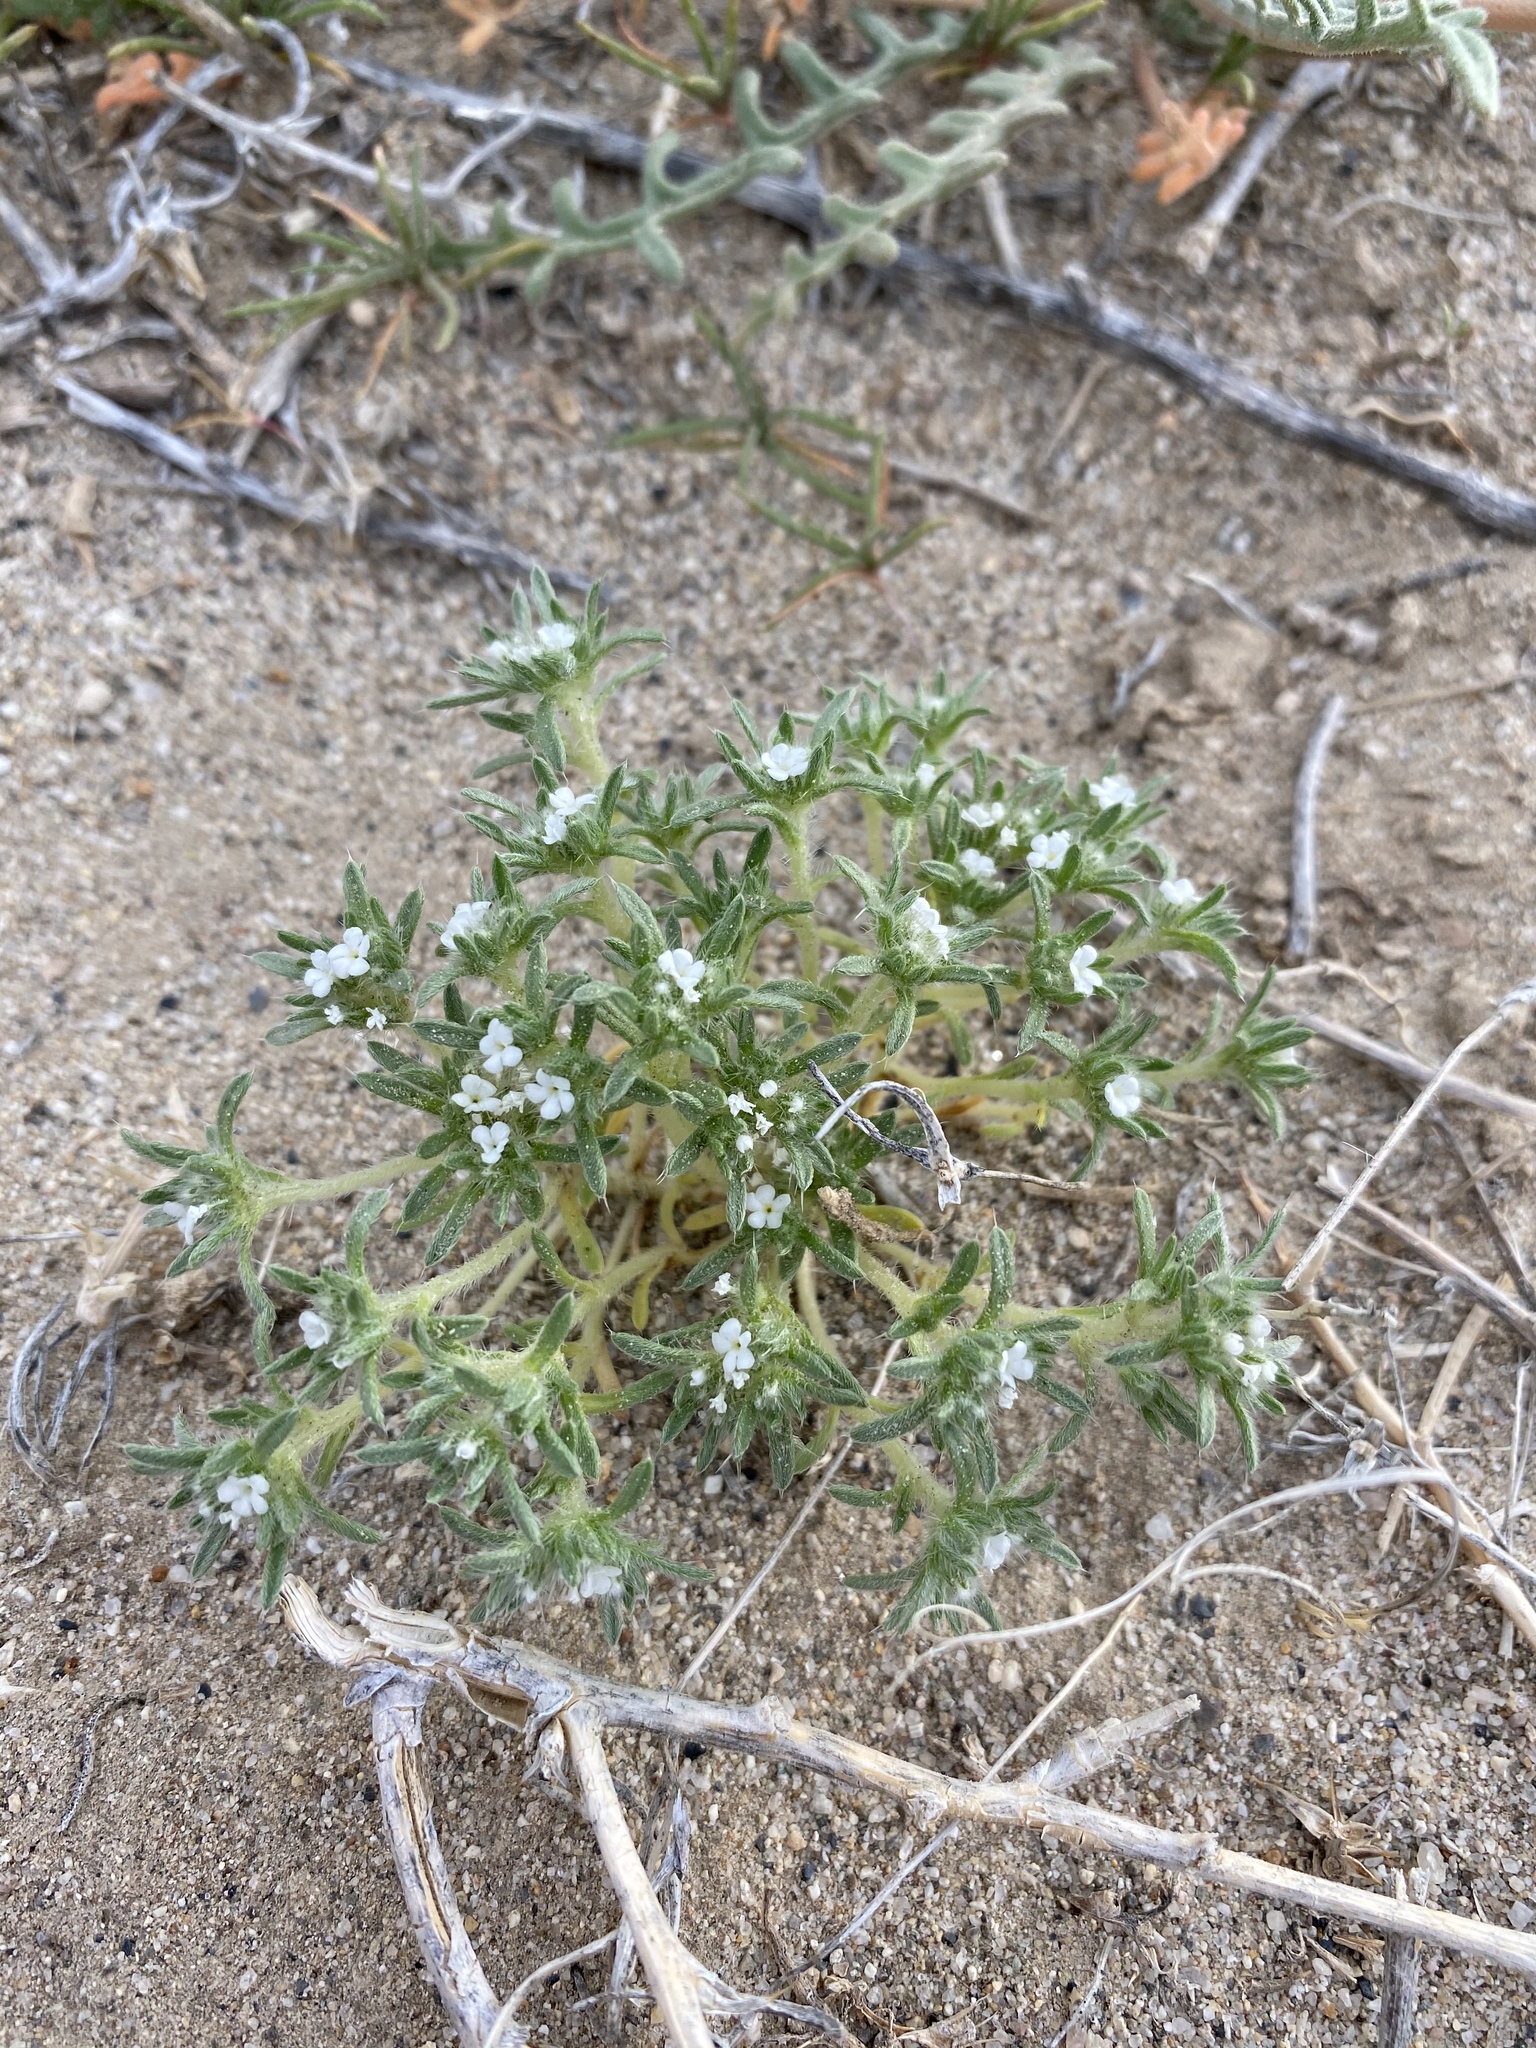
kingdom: Plantae
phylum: Tracheophyta
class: Magnoliopsida
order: Boraginales
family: Boraginaceae
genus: Greeneocharis
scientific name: Greeneocharis circumscissa
